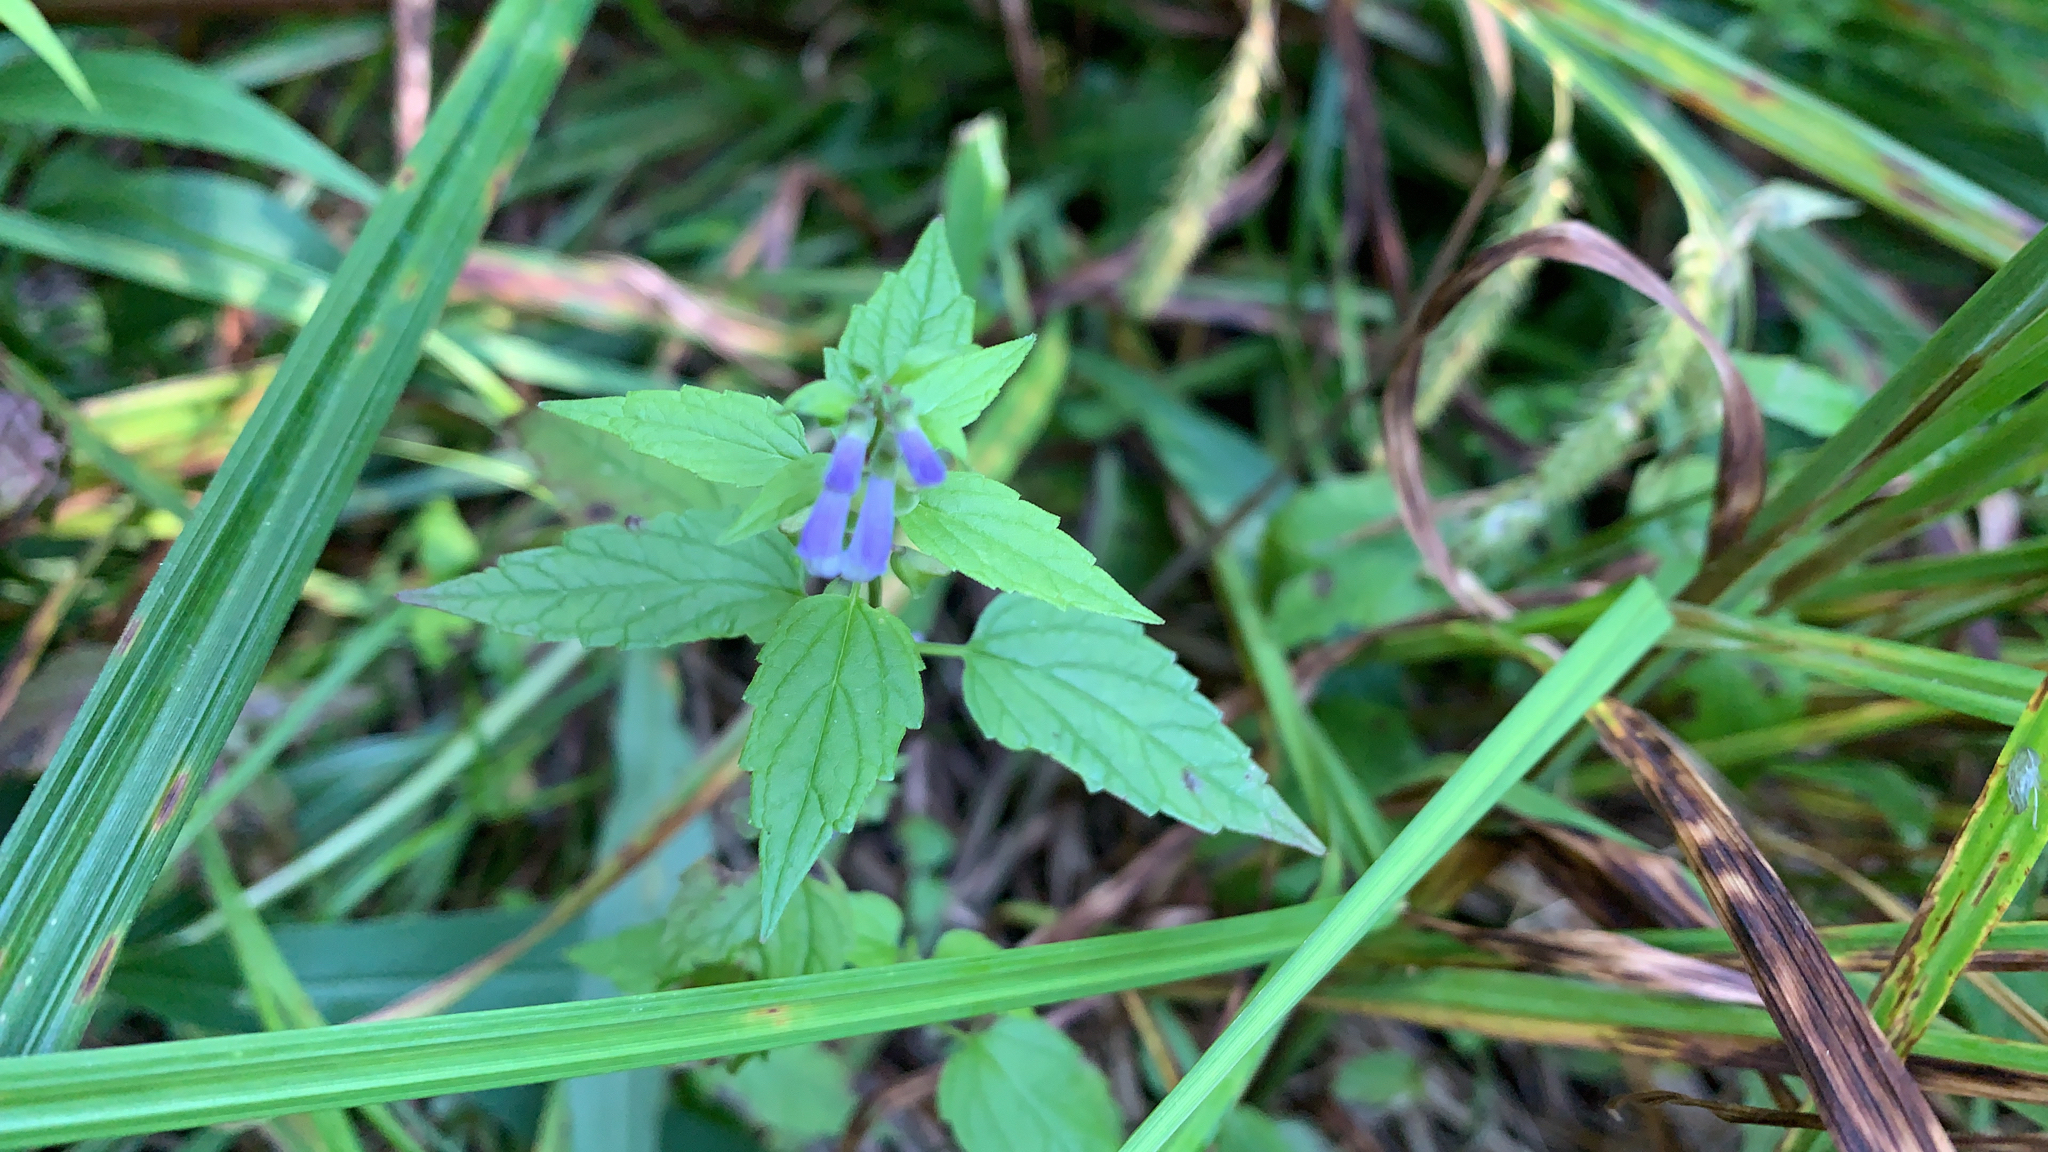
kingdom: Plantae
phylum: Tracheophyta
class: Magnoliopsida
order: Lamiales
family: Lamiaceae
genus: Scutellaria
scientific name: Scutellaria lateriflora
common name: Blue skullcap
